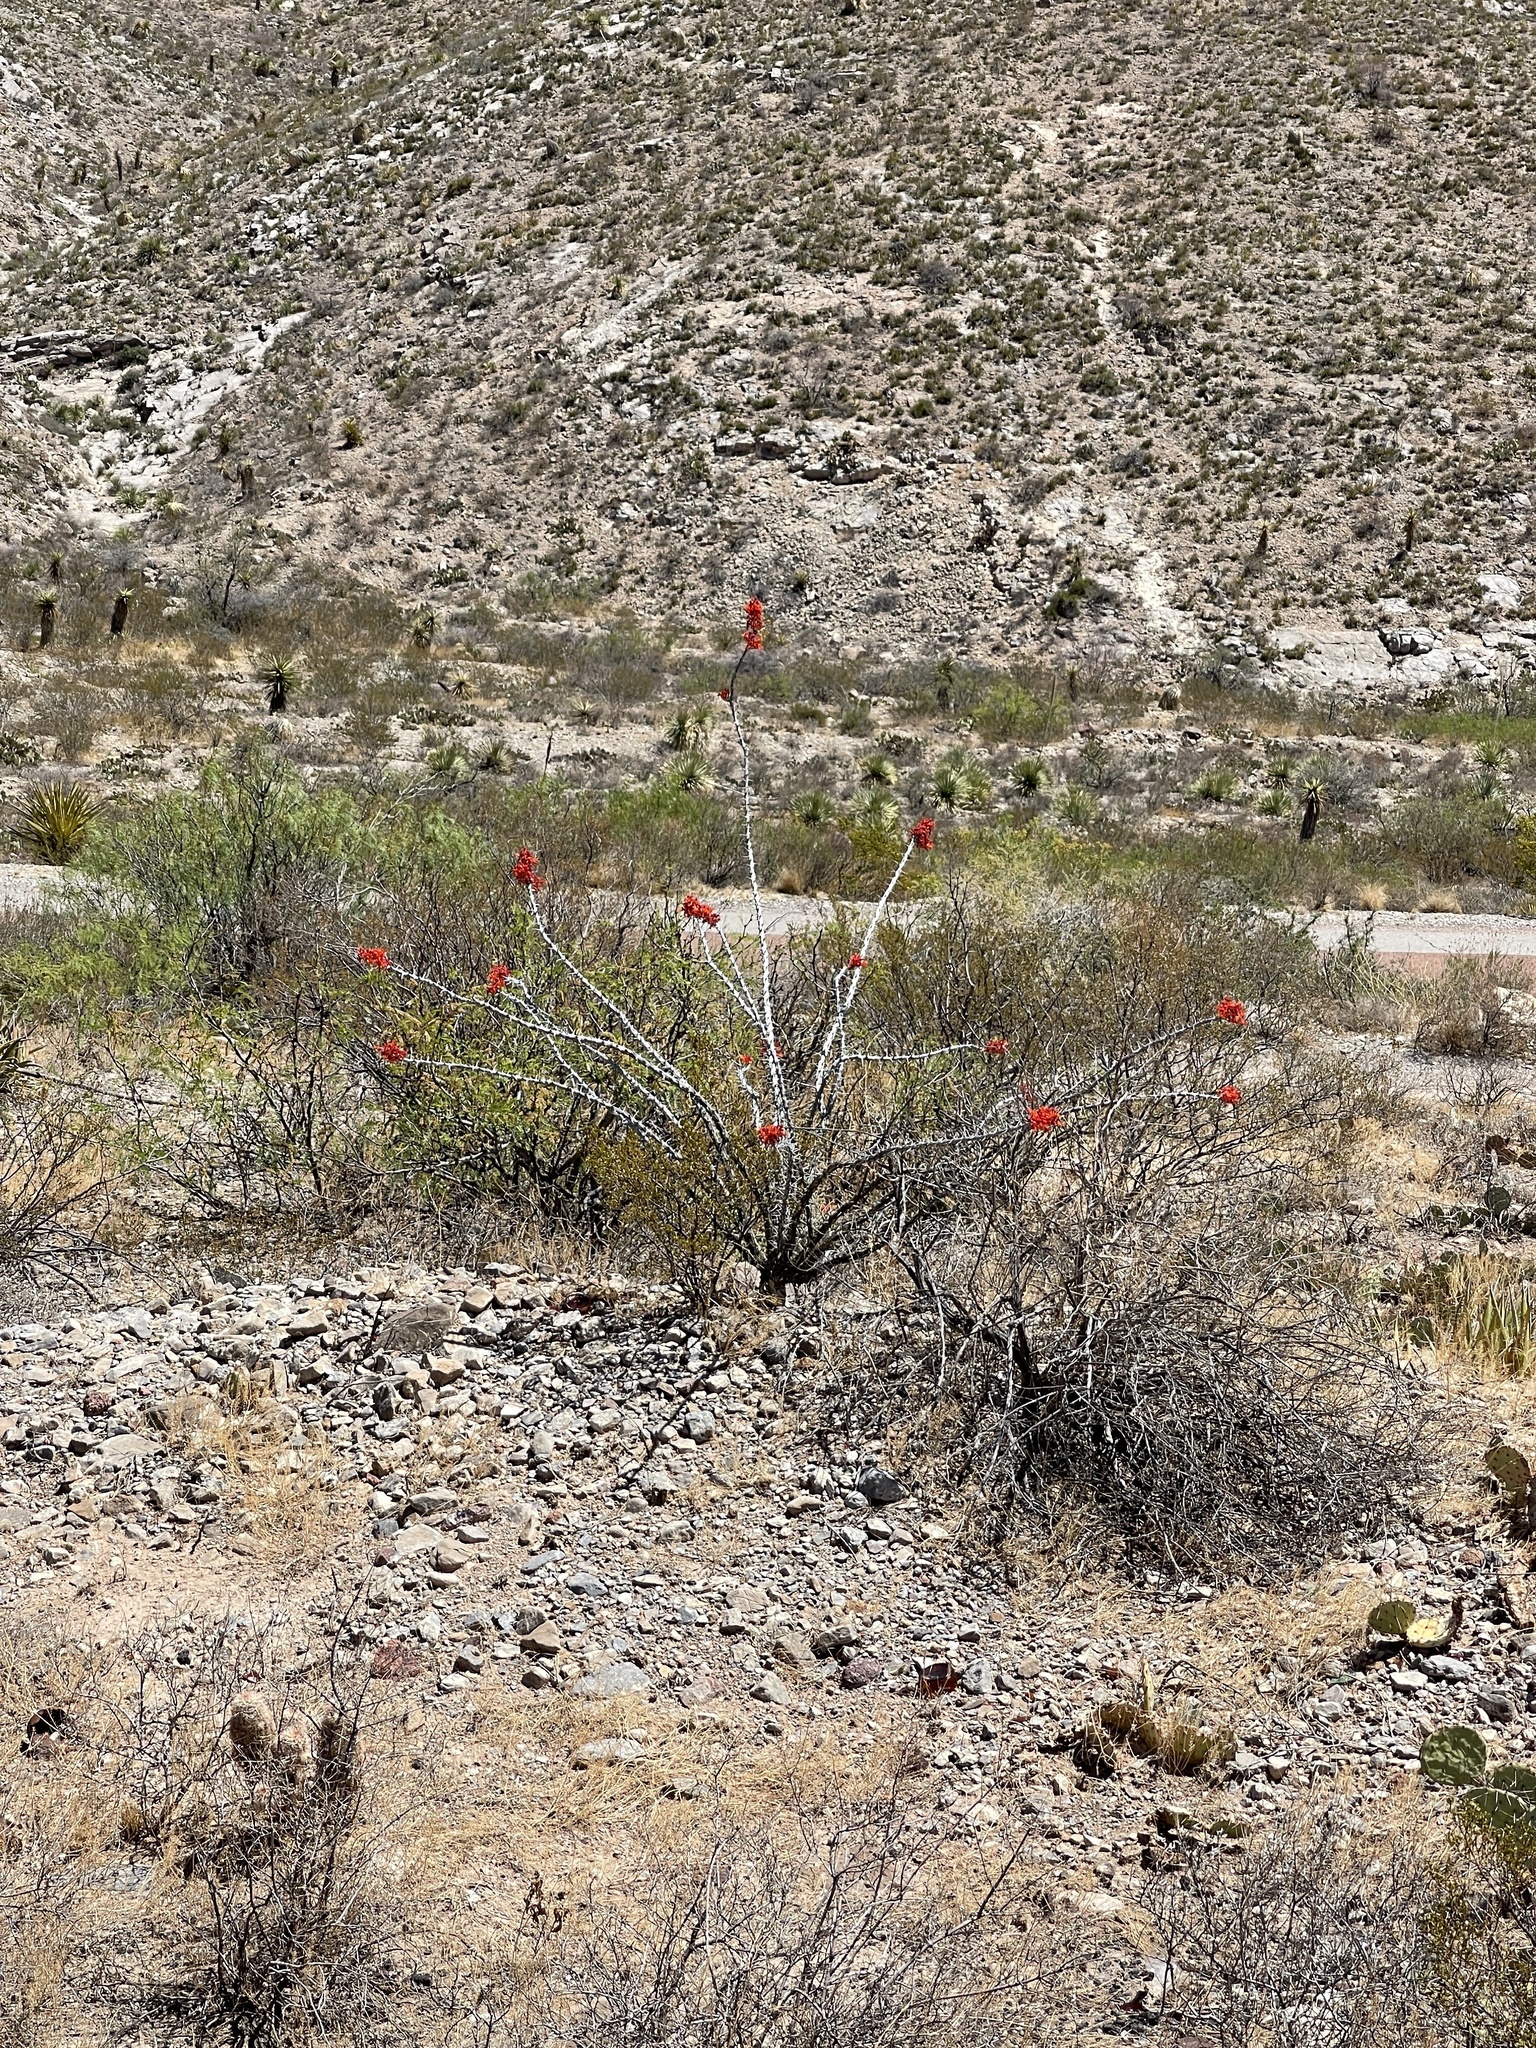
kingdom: Plantae
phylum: Tracheophyta
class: Magnoliopsida
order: Ericales
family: Fouquieriaceae
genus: Fouquieria
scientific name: Fouquieria splendens
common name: Vine-cactus
